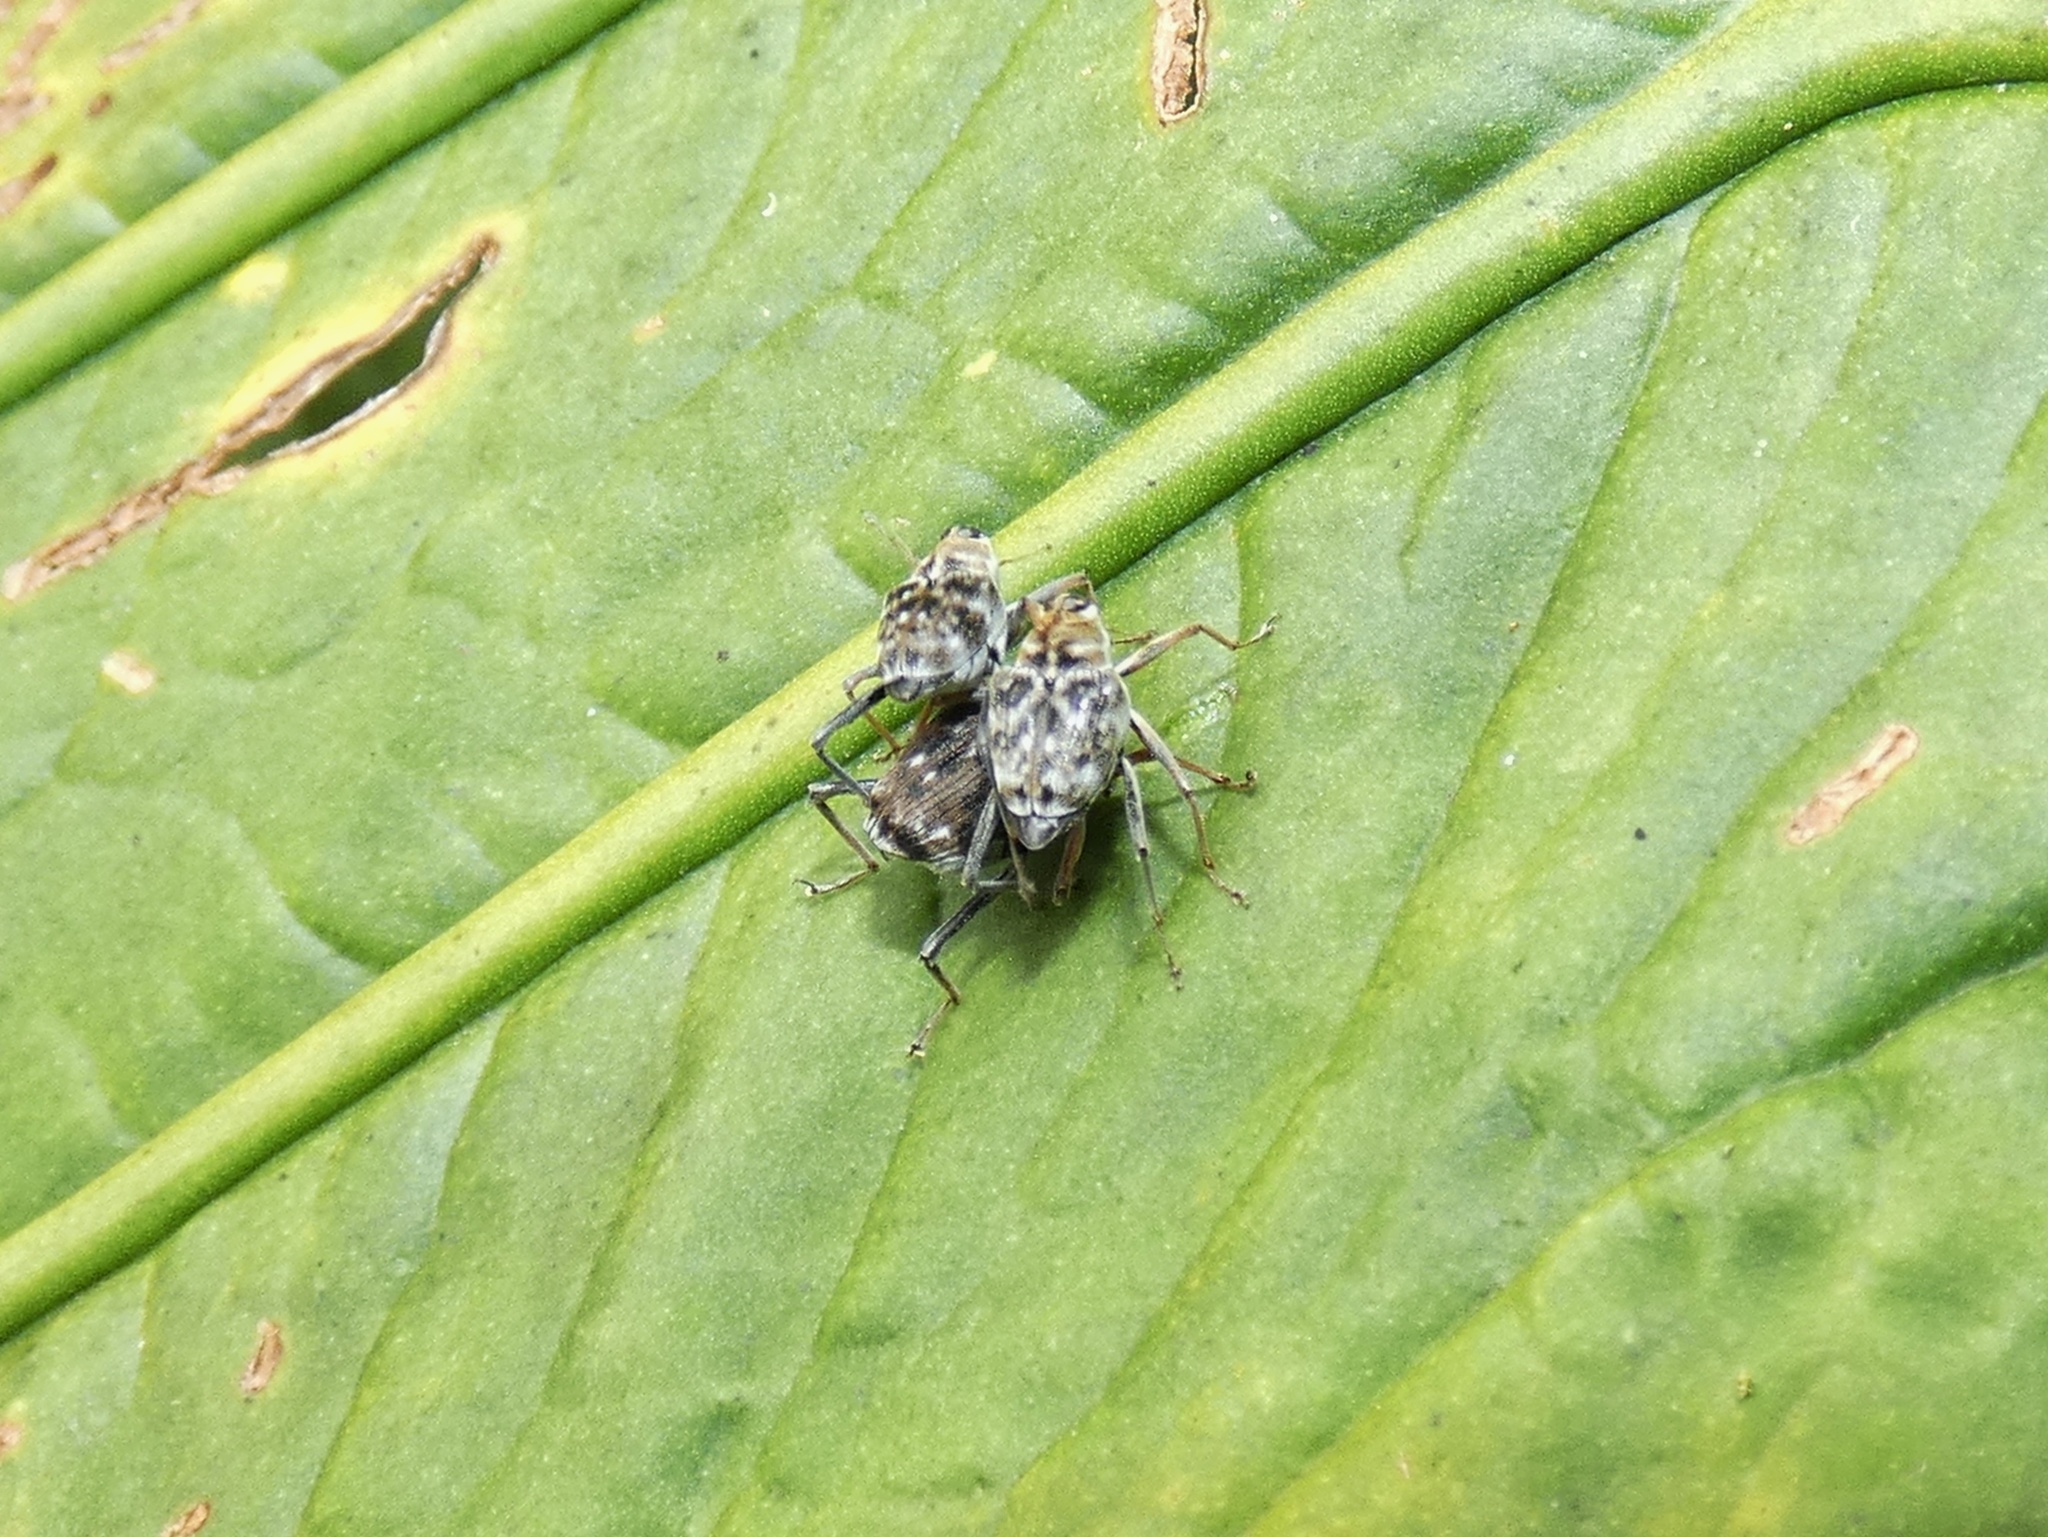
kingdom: Animalia
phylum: Arthropoda
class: Insecta
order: Coleoptera
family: Curculionidae
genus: Hoplocopturus
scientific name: Hoplocopturus varipes
